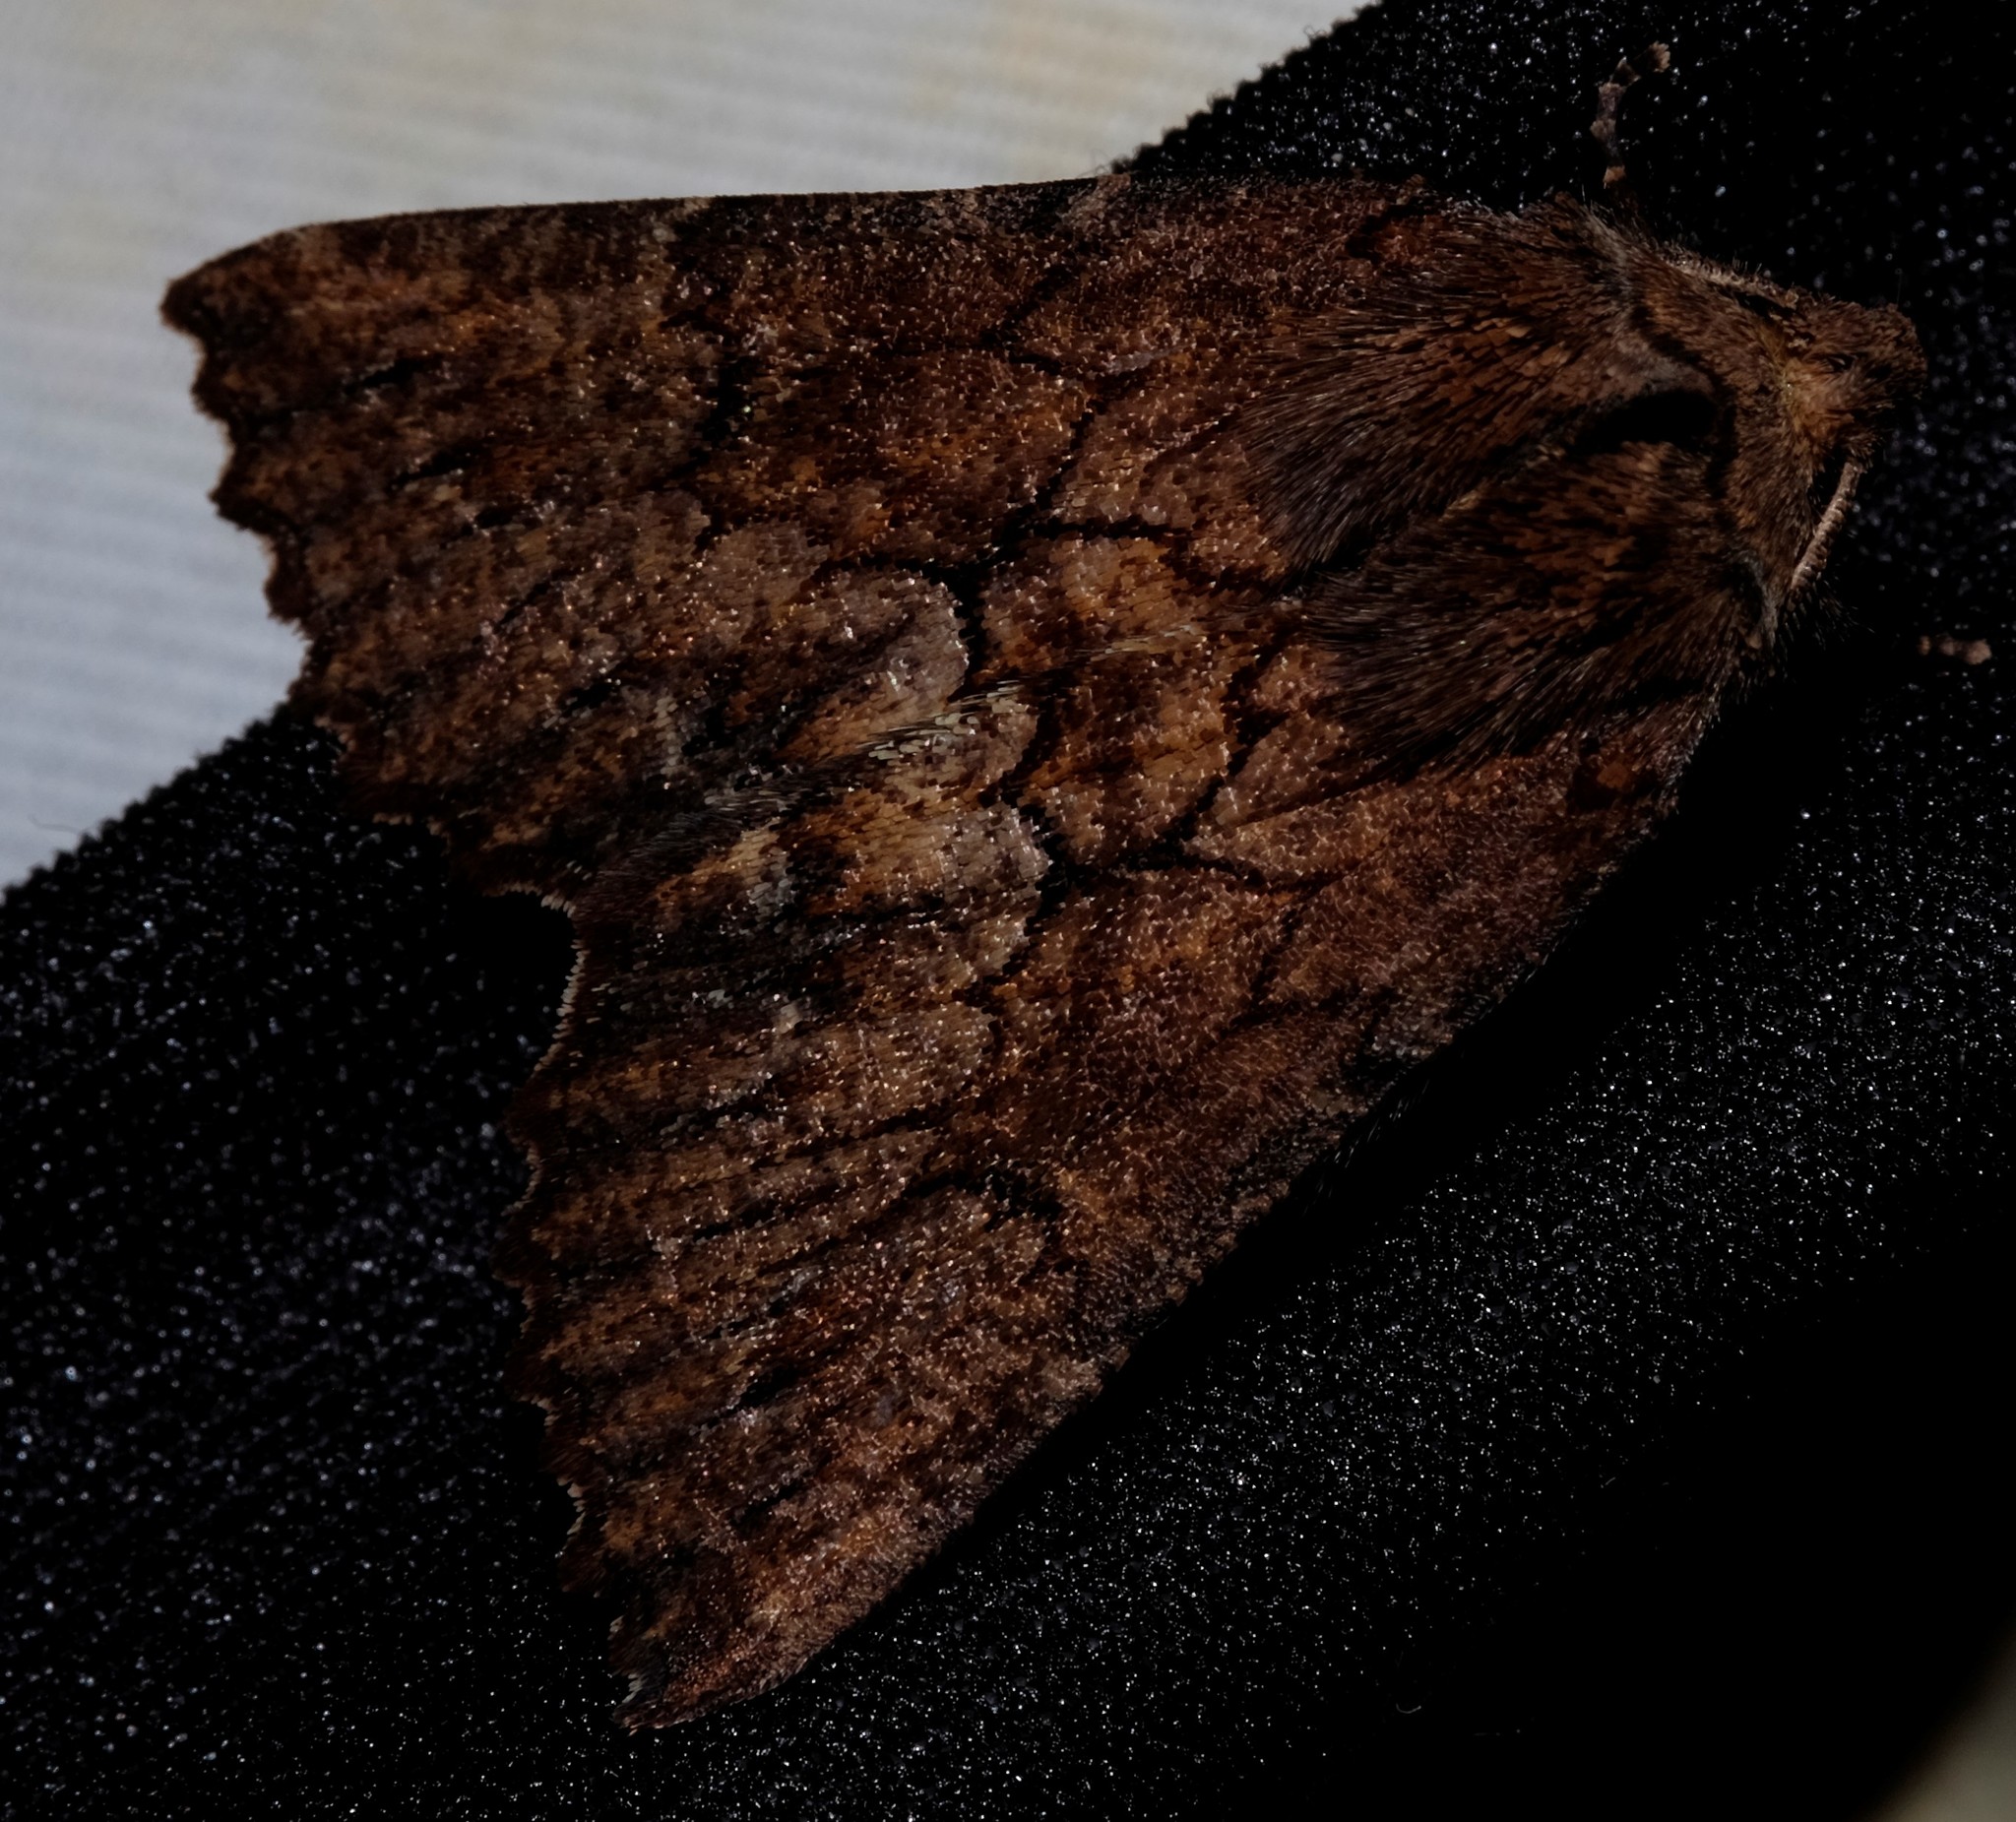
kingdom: Animalia
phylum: Arthropoda
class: Insecta
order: Lepidoptera
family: Geometridae
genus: Nisista
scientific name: Nisista serrata
